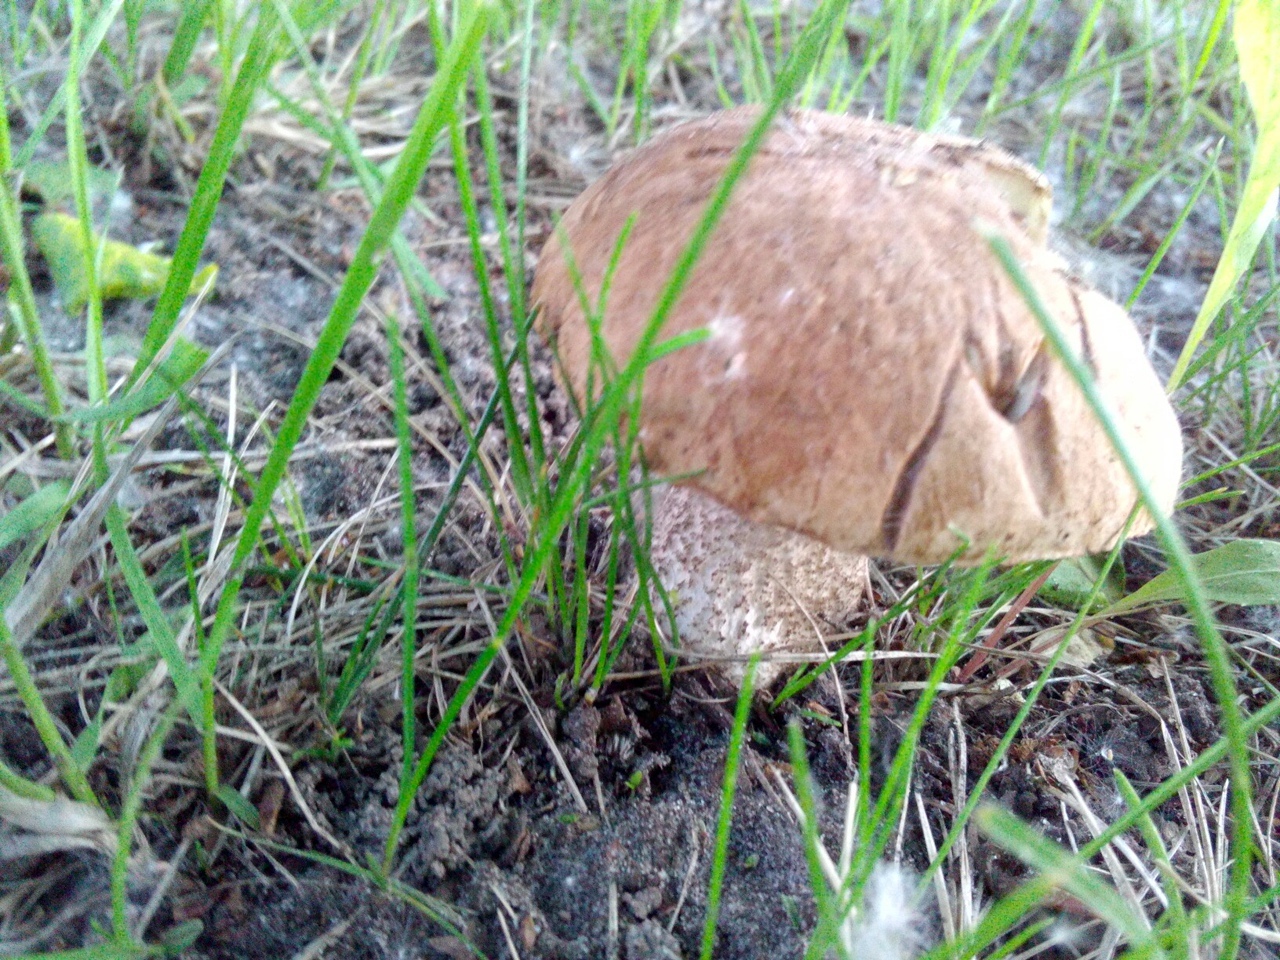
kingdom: Fungi
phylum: Basidiomycota
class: Agaricomycetes
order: Boletales
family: Boletaceae
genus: Leccinum
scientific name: Leccinum scabrum
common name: Blushing bolete
